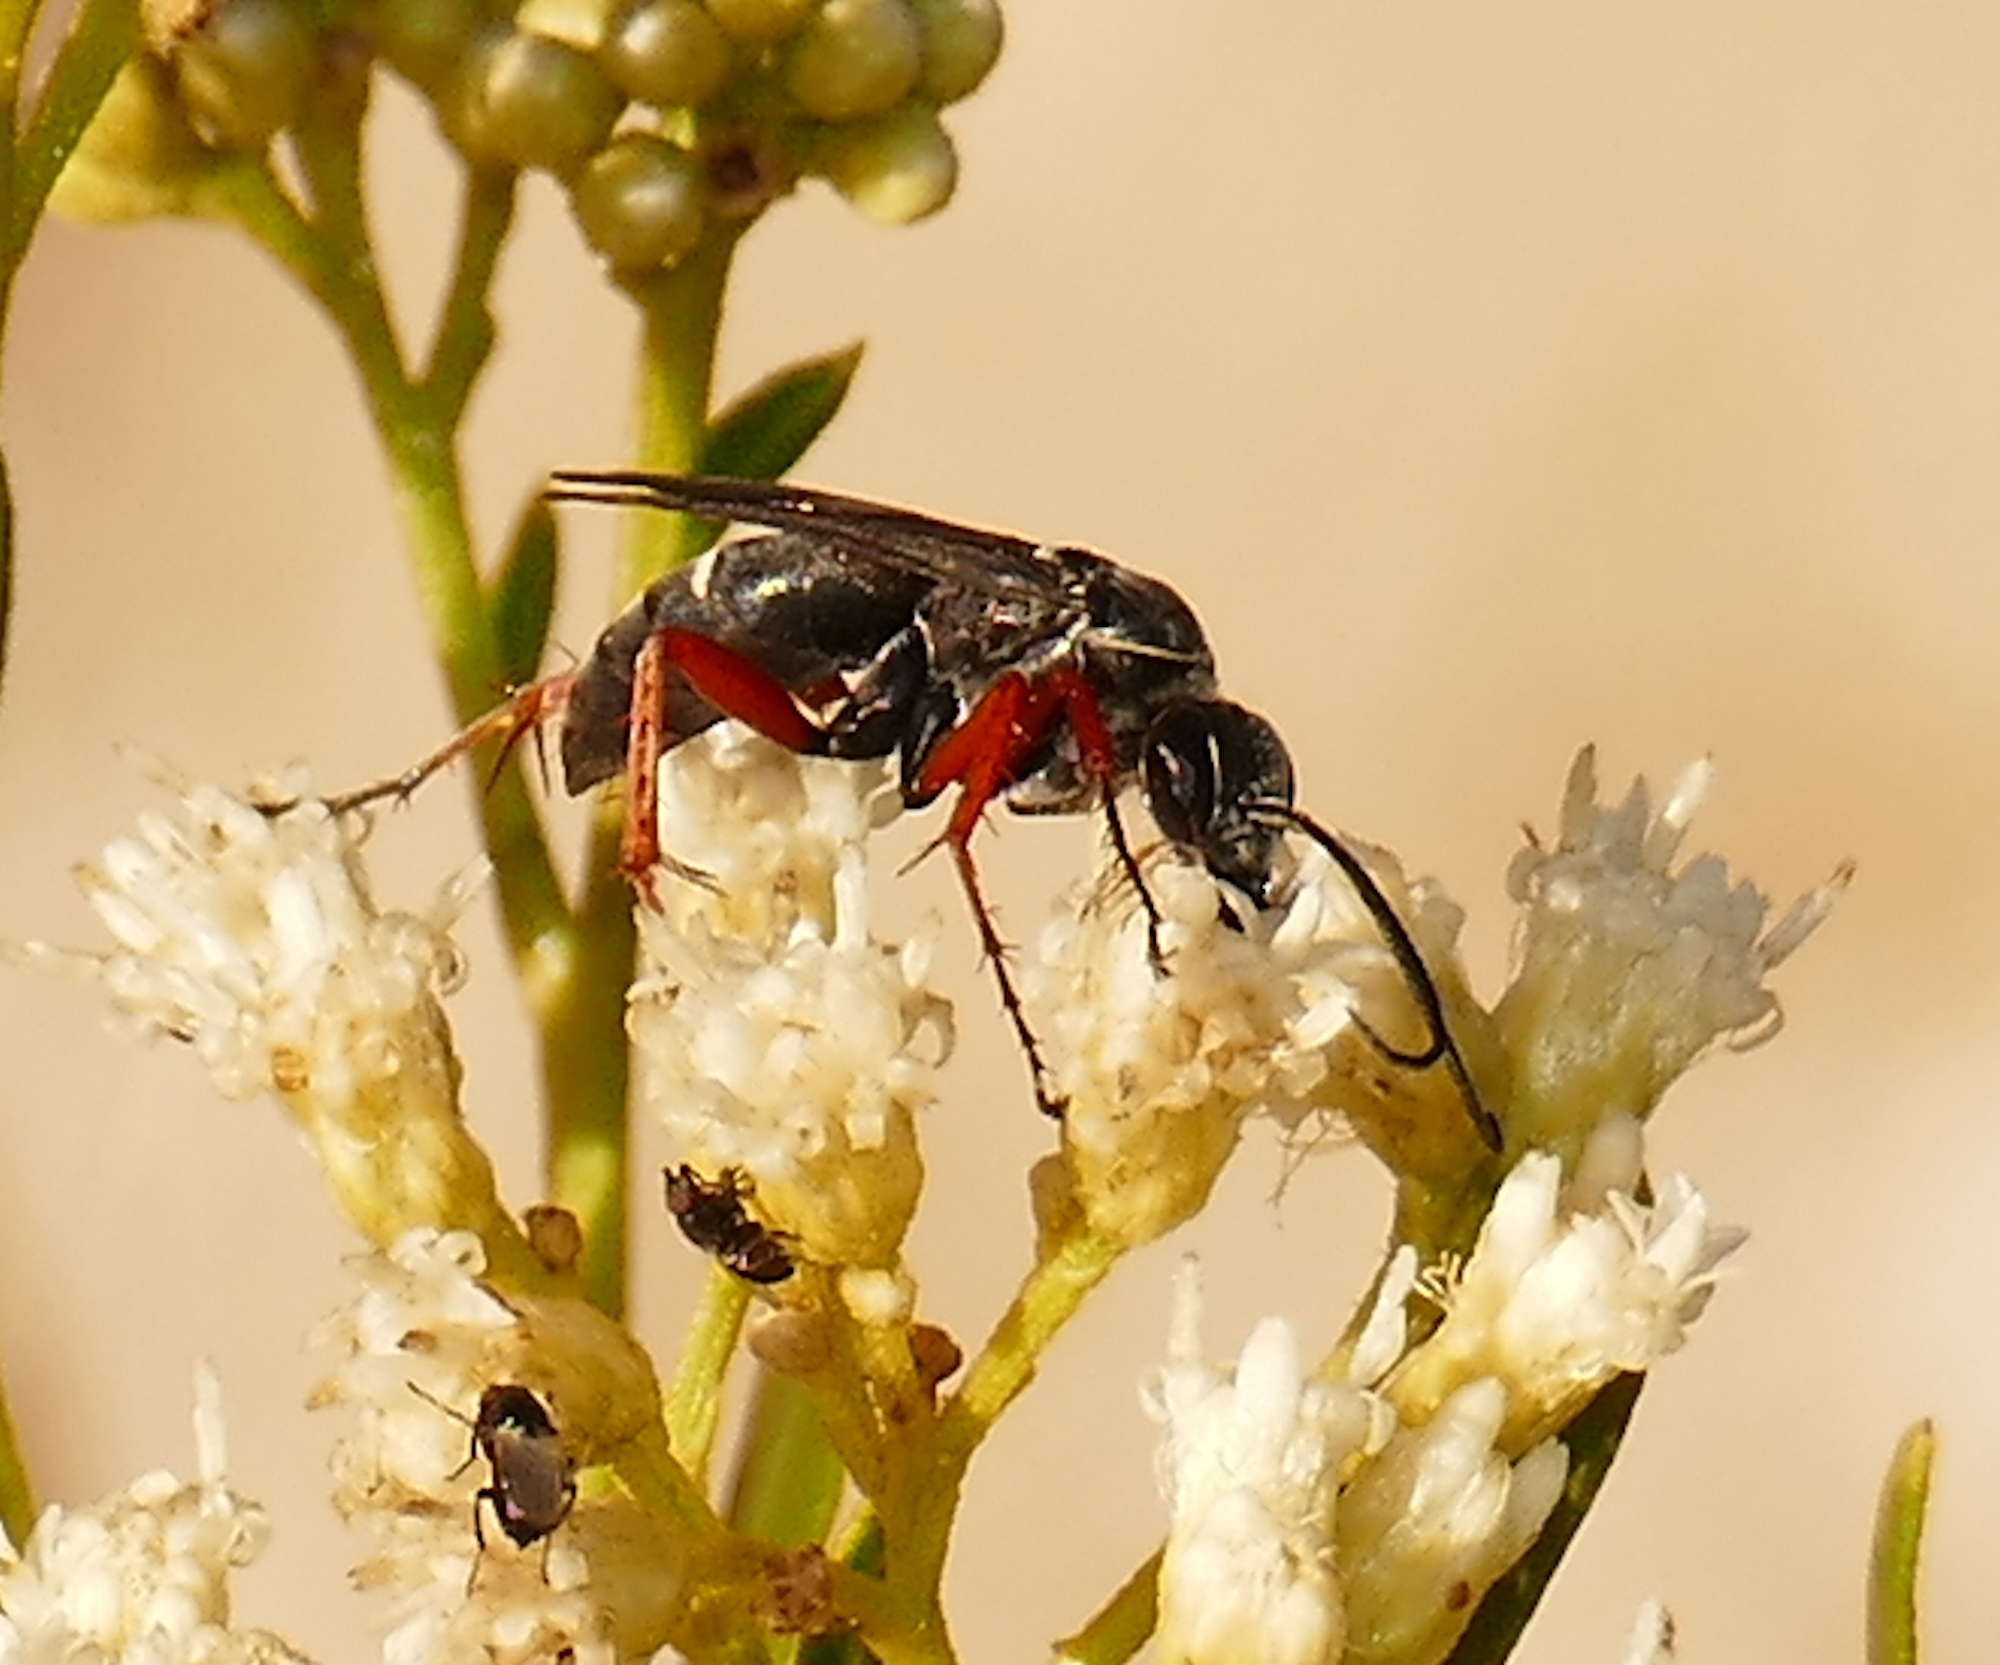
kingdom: Animalia
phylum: Arthropoda
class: Insecta
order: Hymenoptera
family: Pompilidae
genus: Episyron
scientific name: Episyron conterminus
